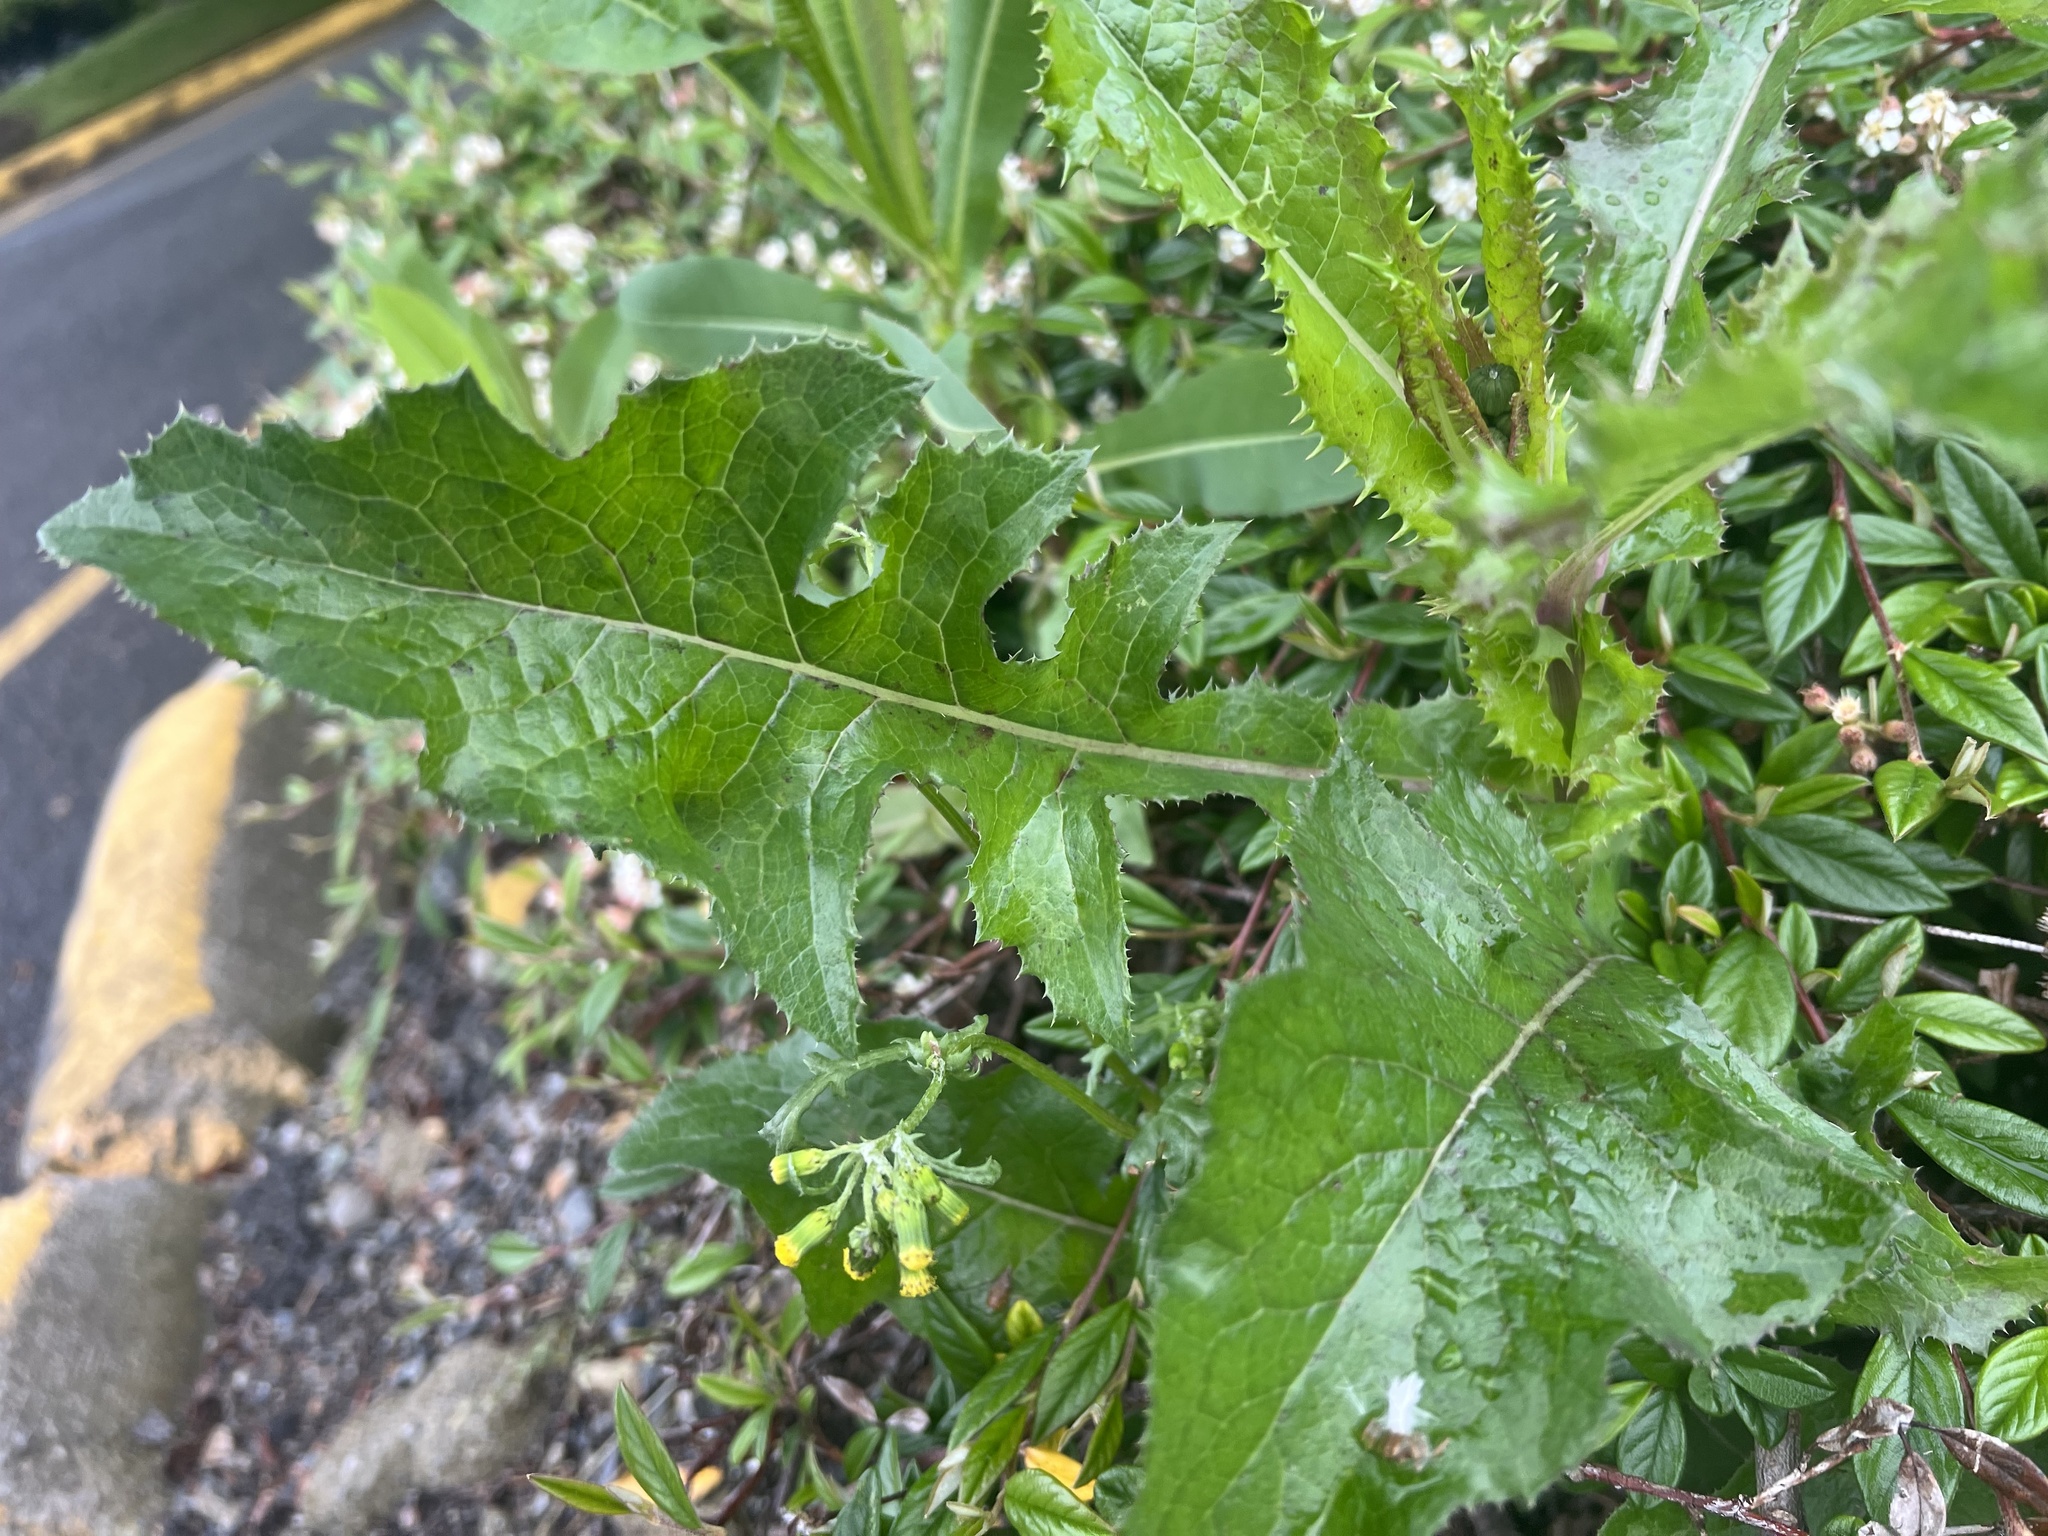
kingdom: Plantae
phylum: Tracheophyta
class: Magnoliopsida
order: Asterales
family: Asteraceae
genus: Senecio
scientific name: Senecio vulgaris
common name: Old-man-in-the-spring
